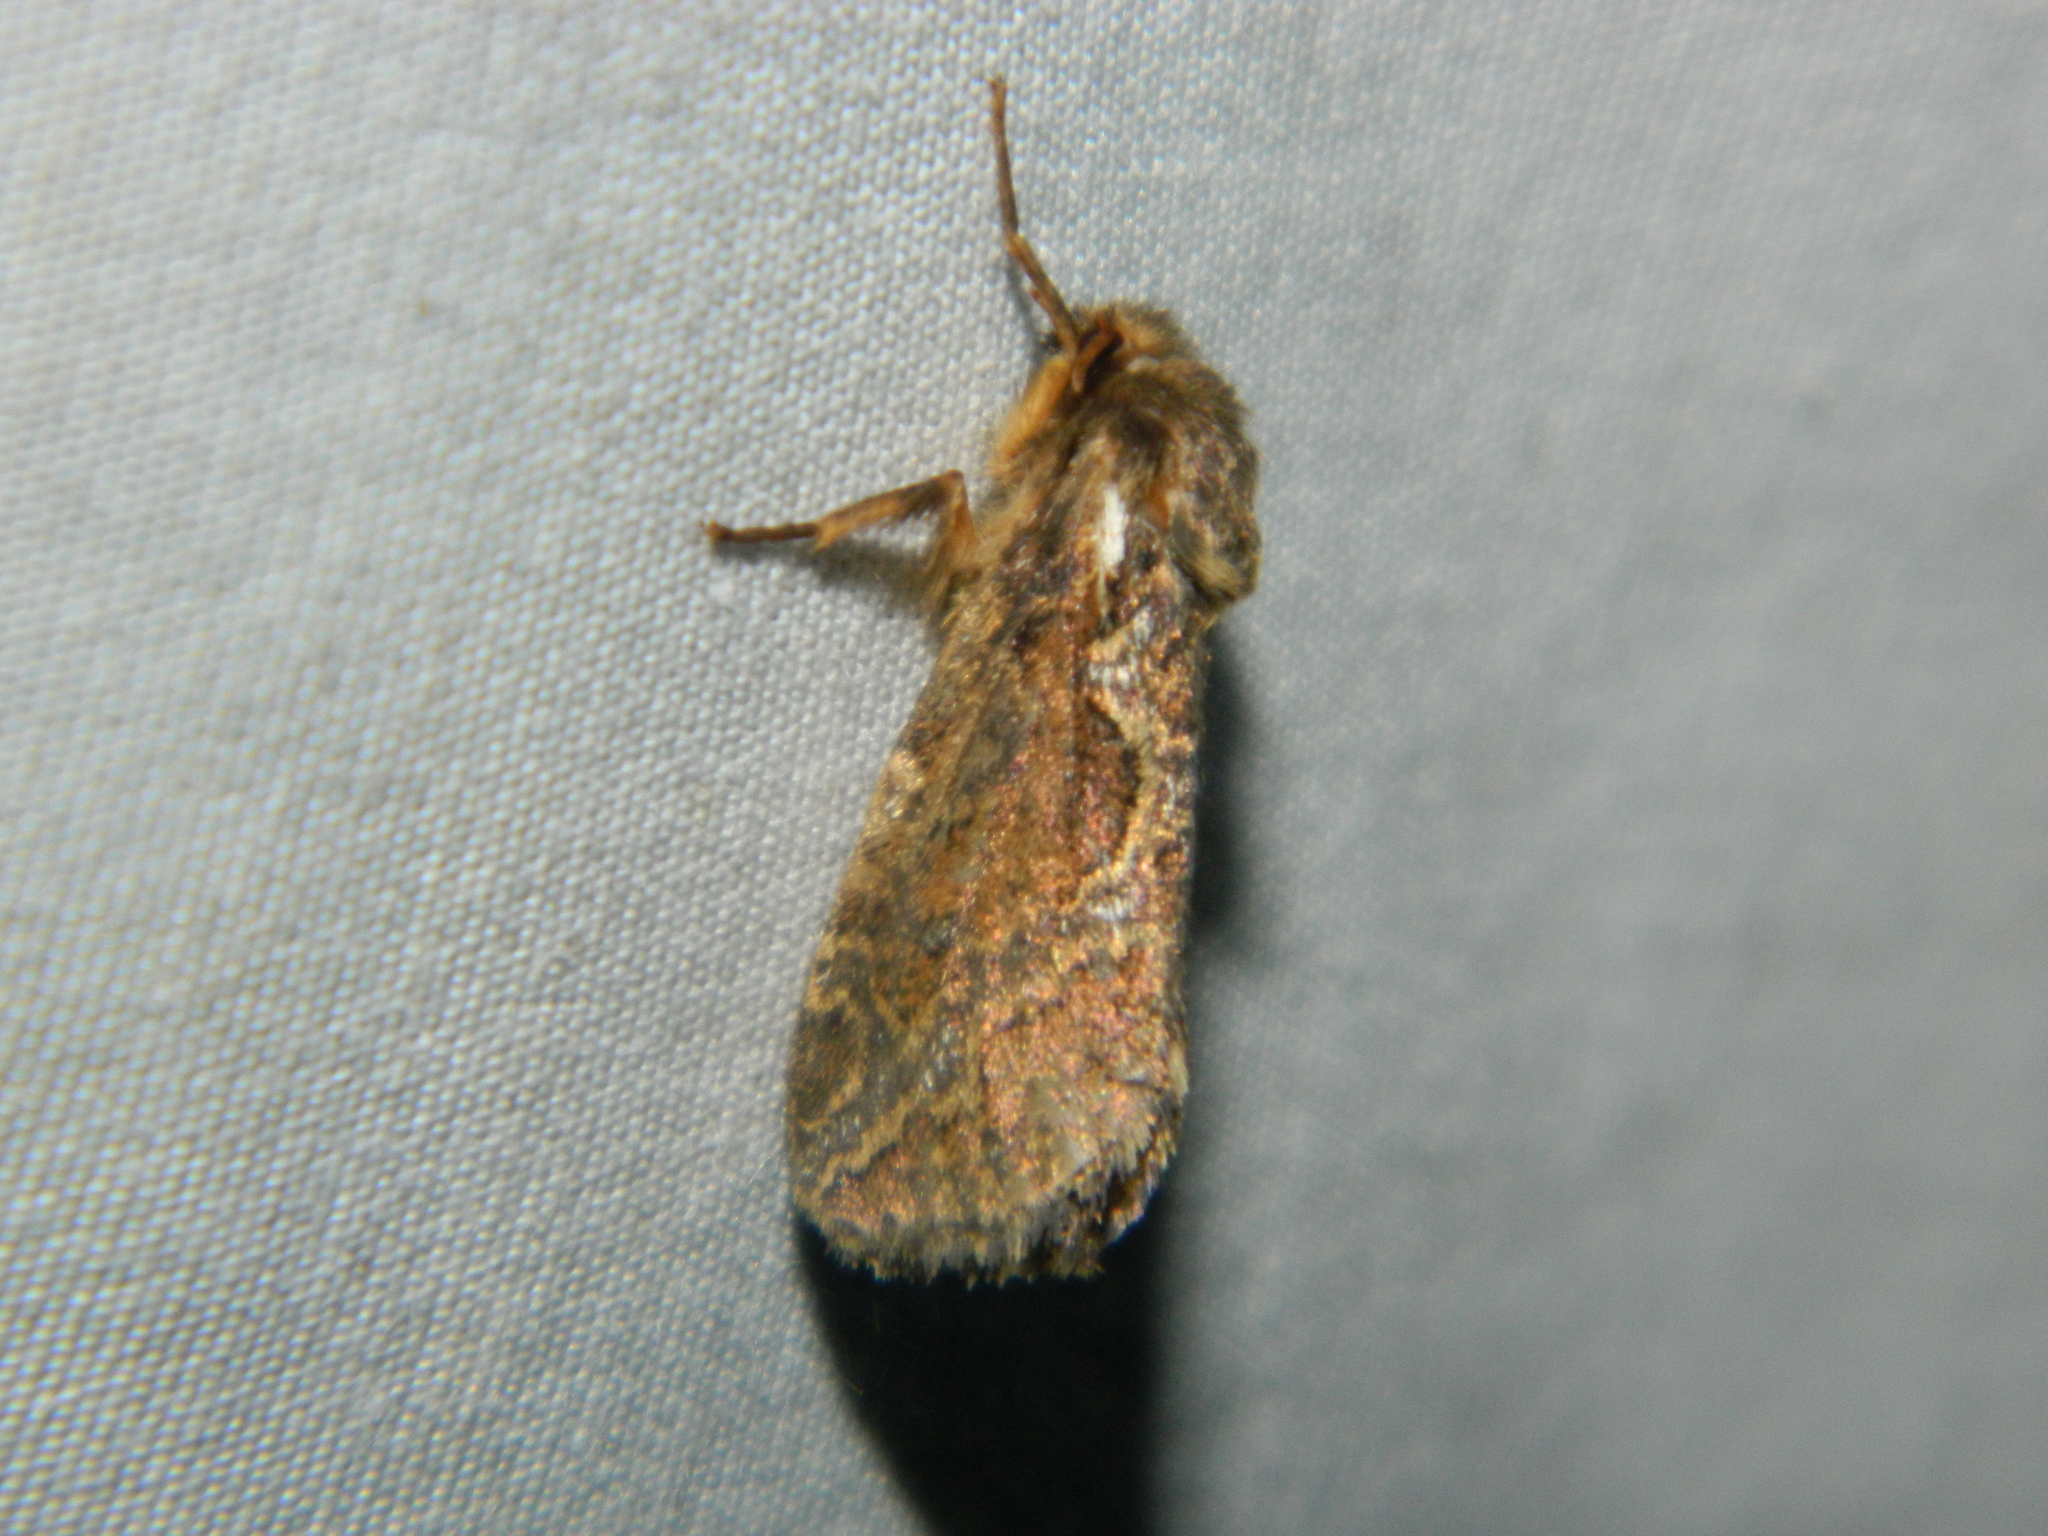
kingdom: Animalia
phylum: Arthropoda
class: Insecta
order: Lepidoptera
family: Hepialidae
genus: Korscheltellus
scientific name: Korscheltellus gracilis
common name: Conifer swift moth
